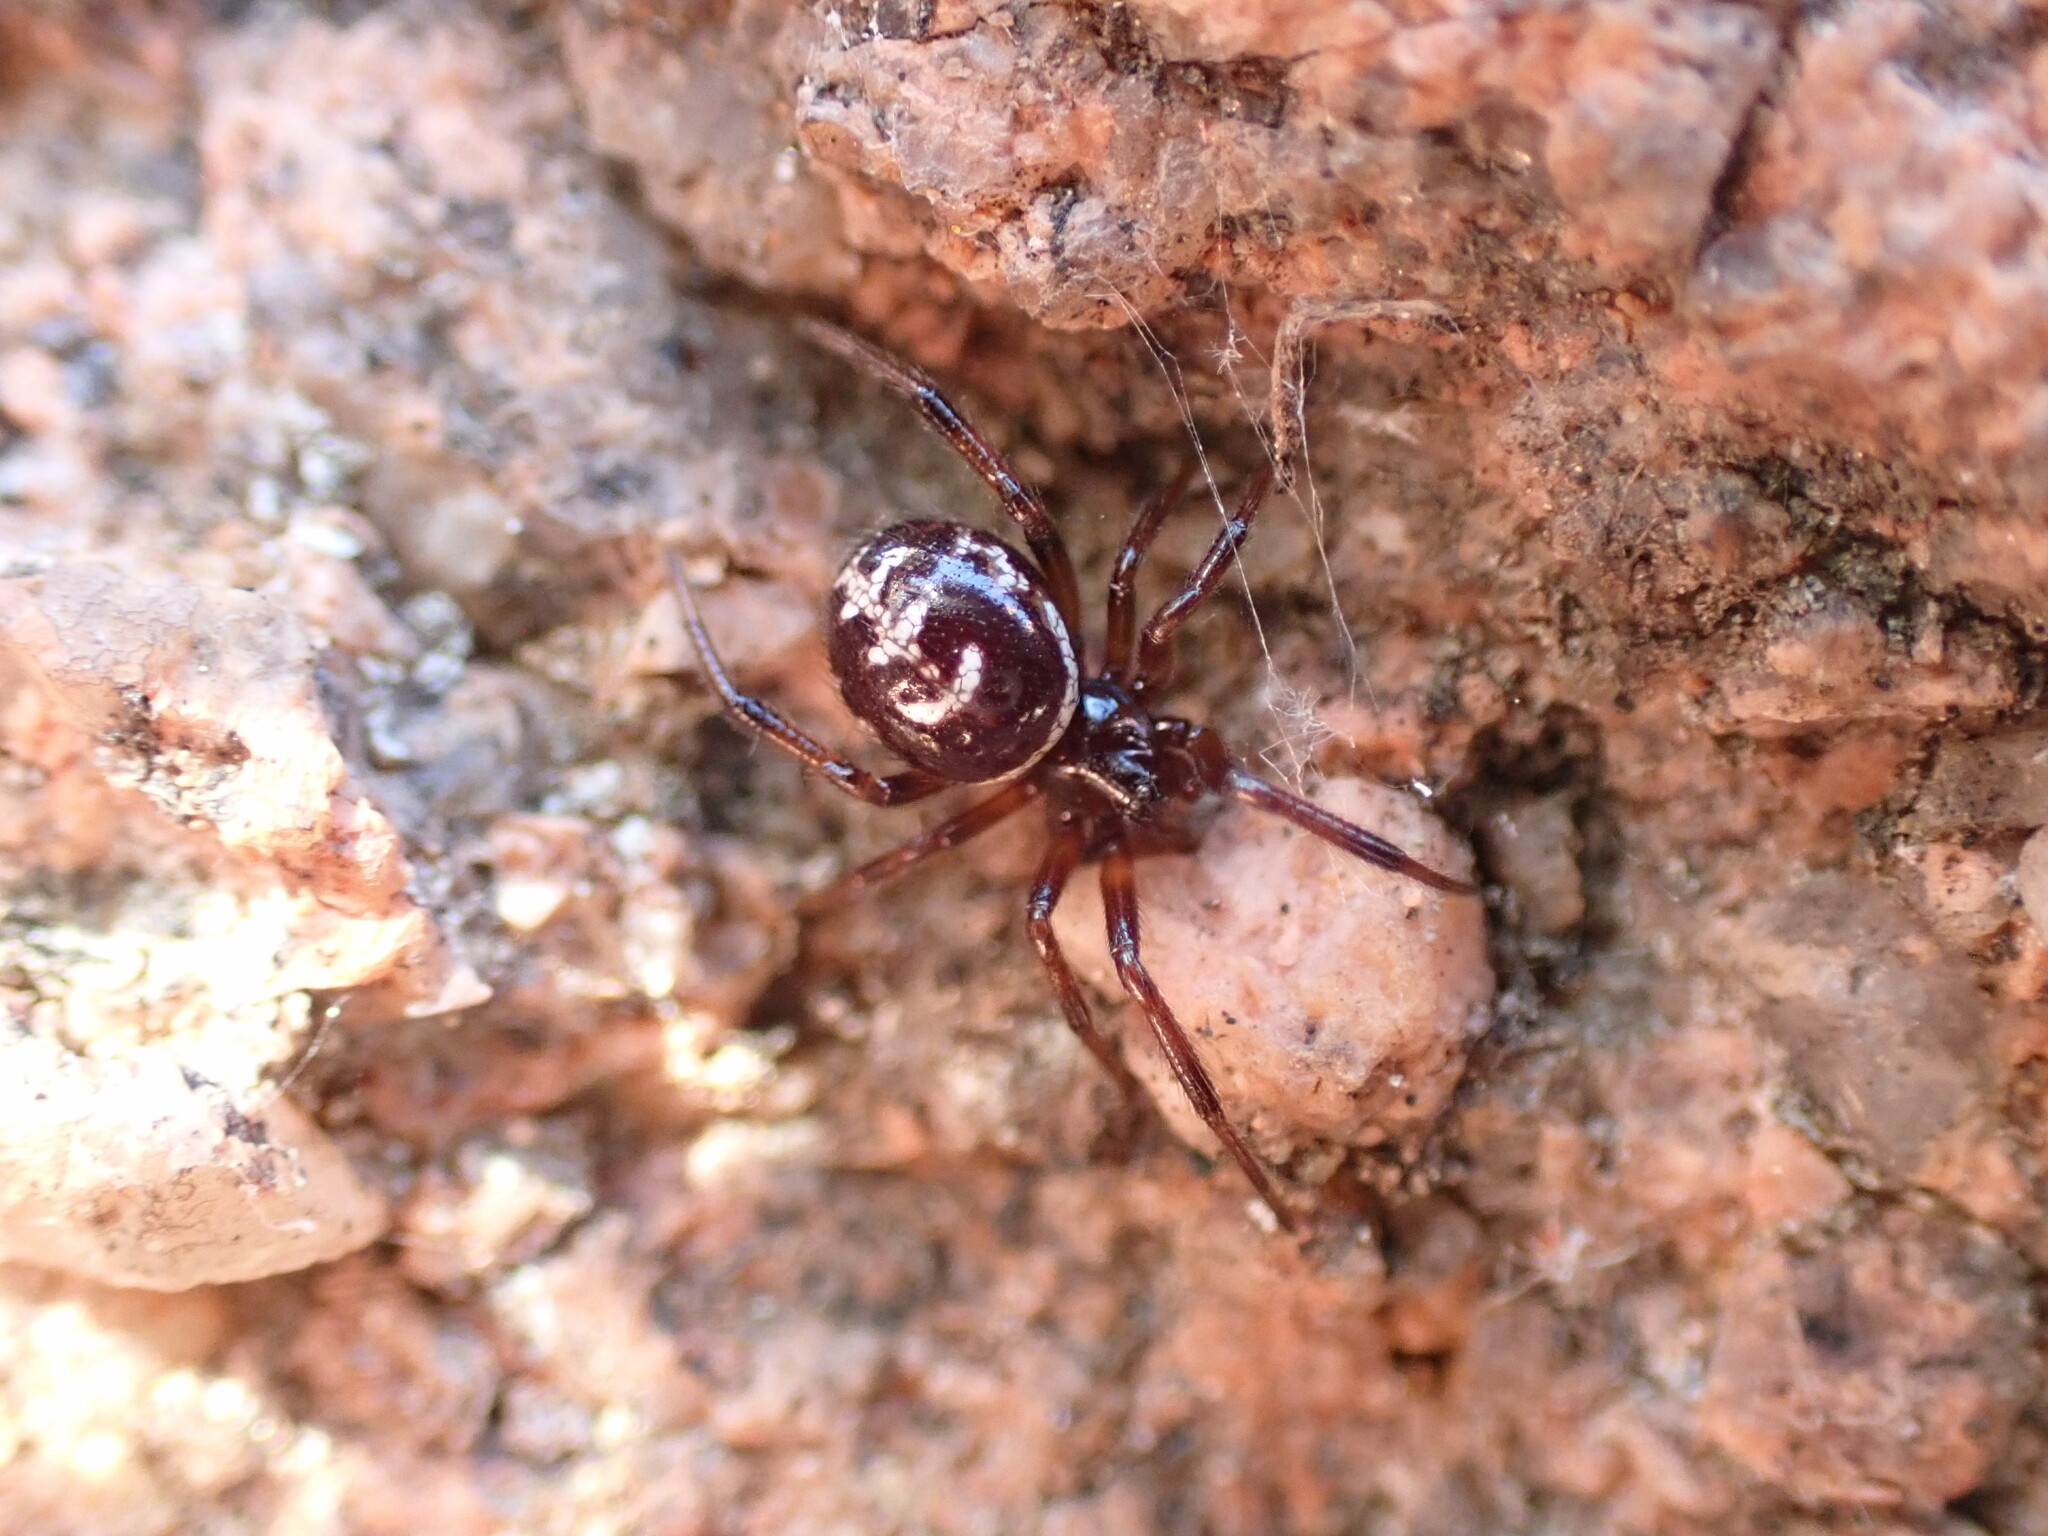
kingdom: Animalia
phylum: Arthropoda
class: Arachnida
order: Araneae
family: Theridiidae
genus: Steatoda
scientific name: Steatoda paykulliana
